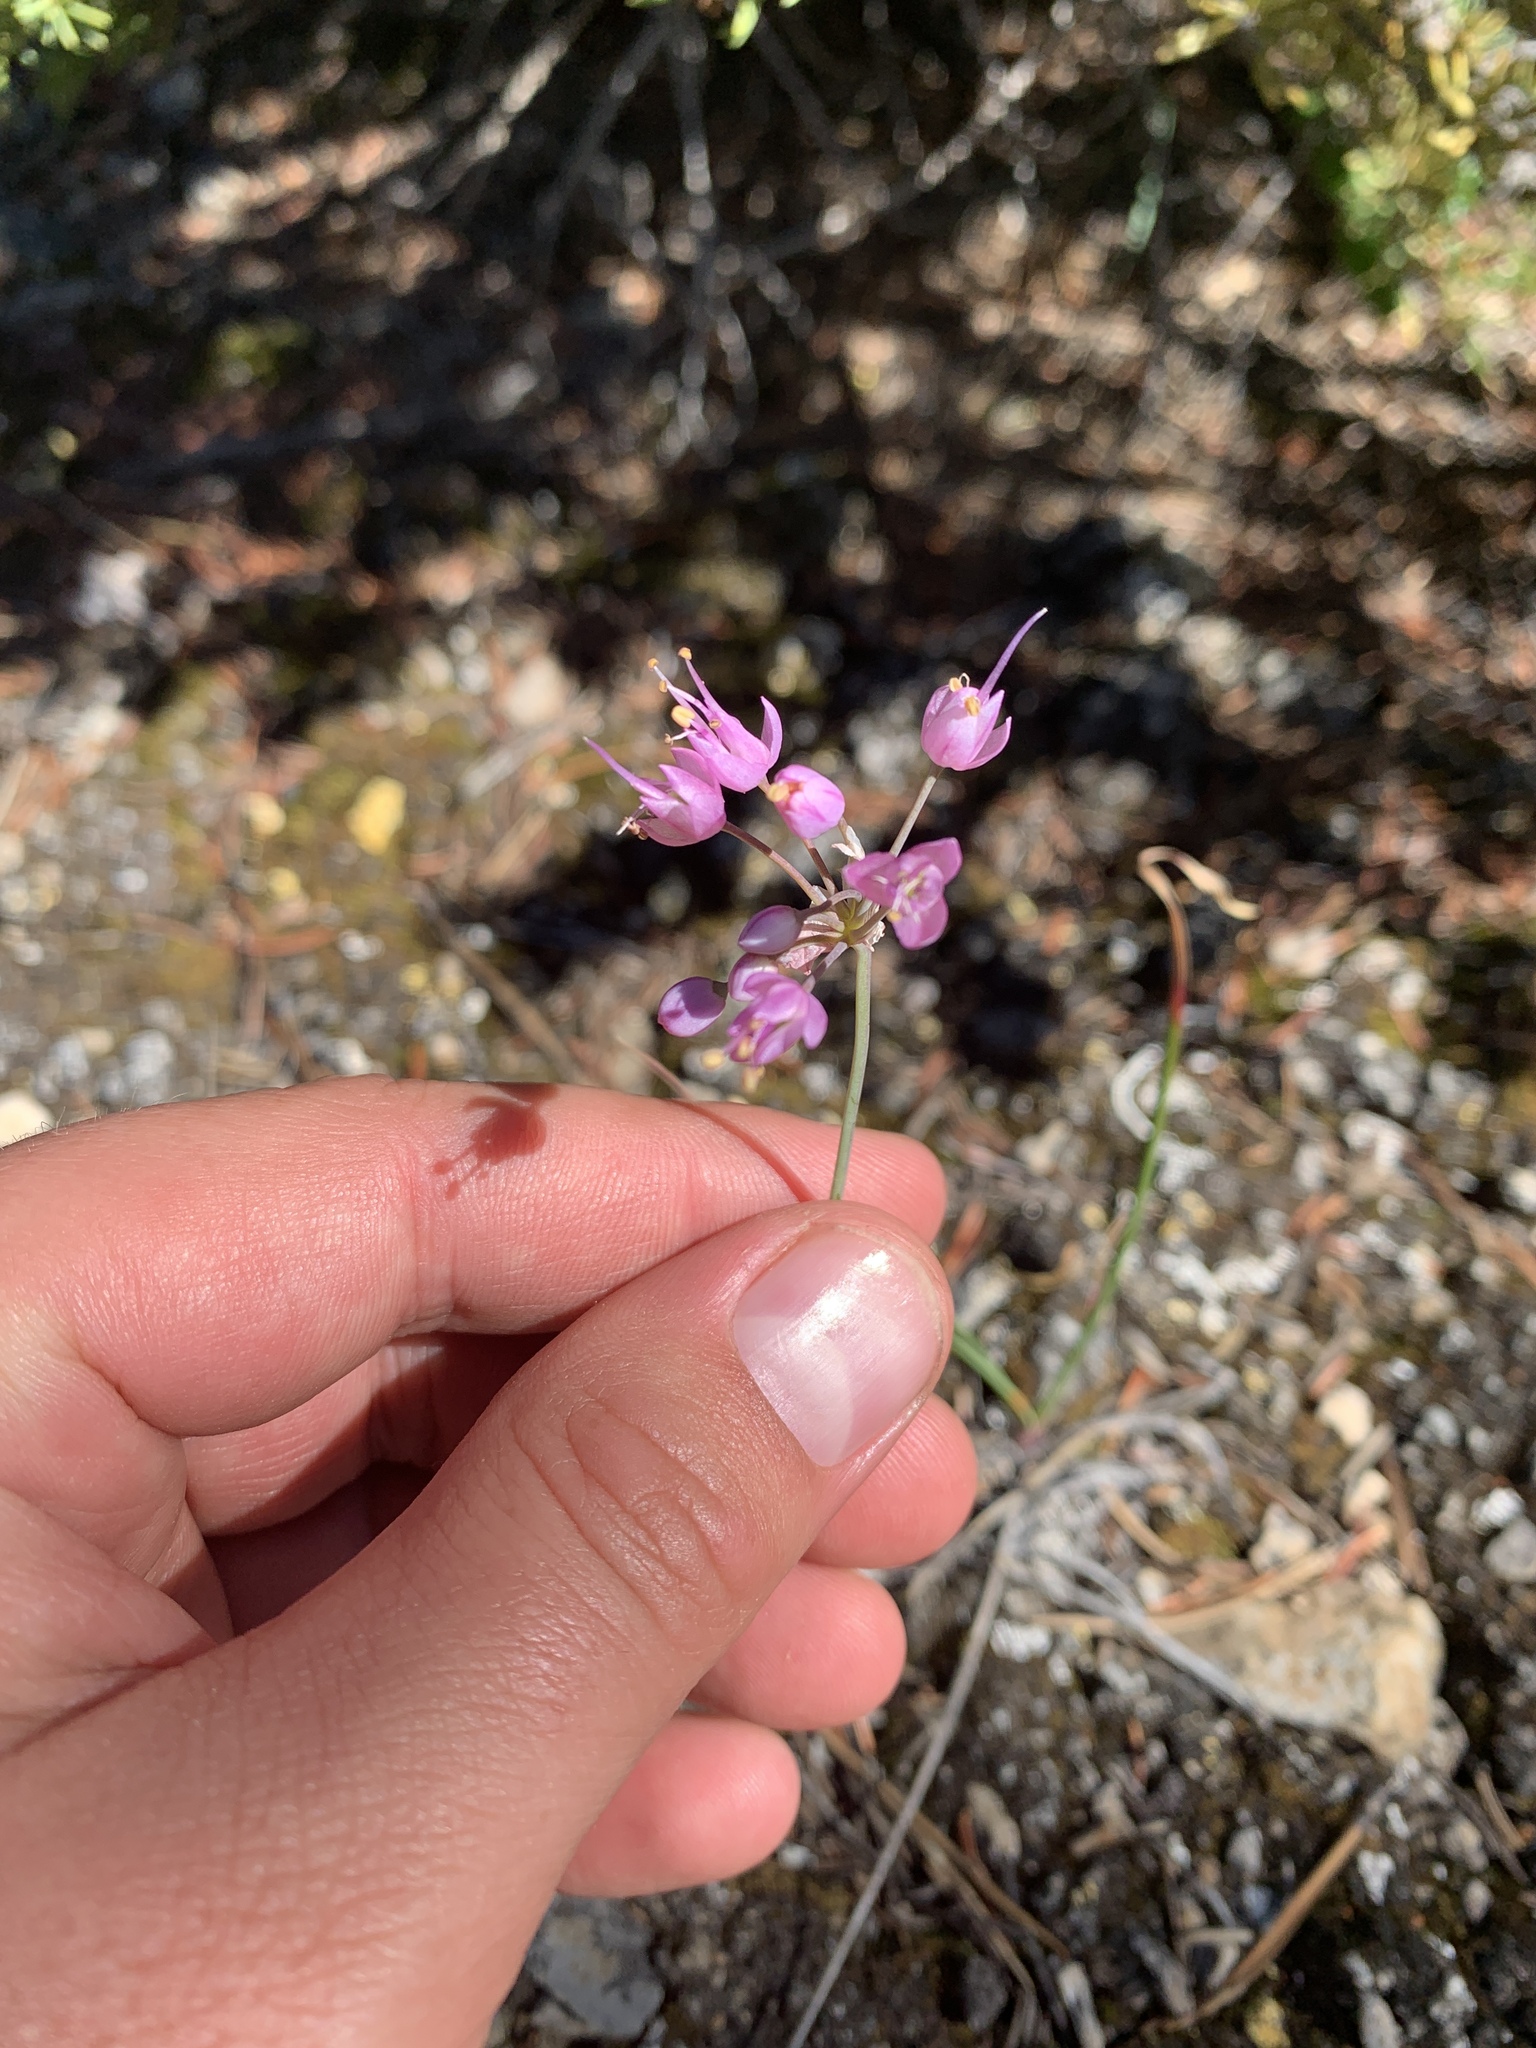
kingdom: Plantae
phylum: Tracheophyta
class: Liliopsida
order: Asparagales
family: Amaryllidaceae
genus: Allium
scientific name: Allium cernuum
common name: Nodding onion
